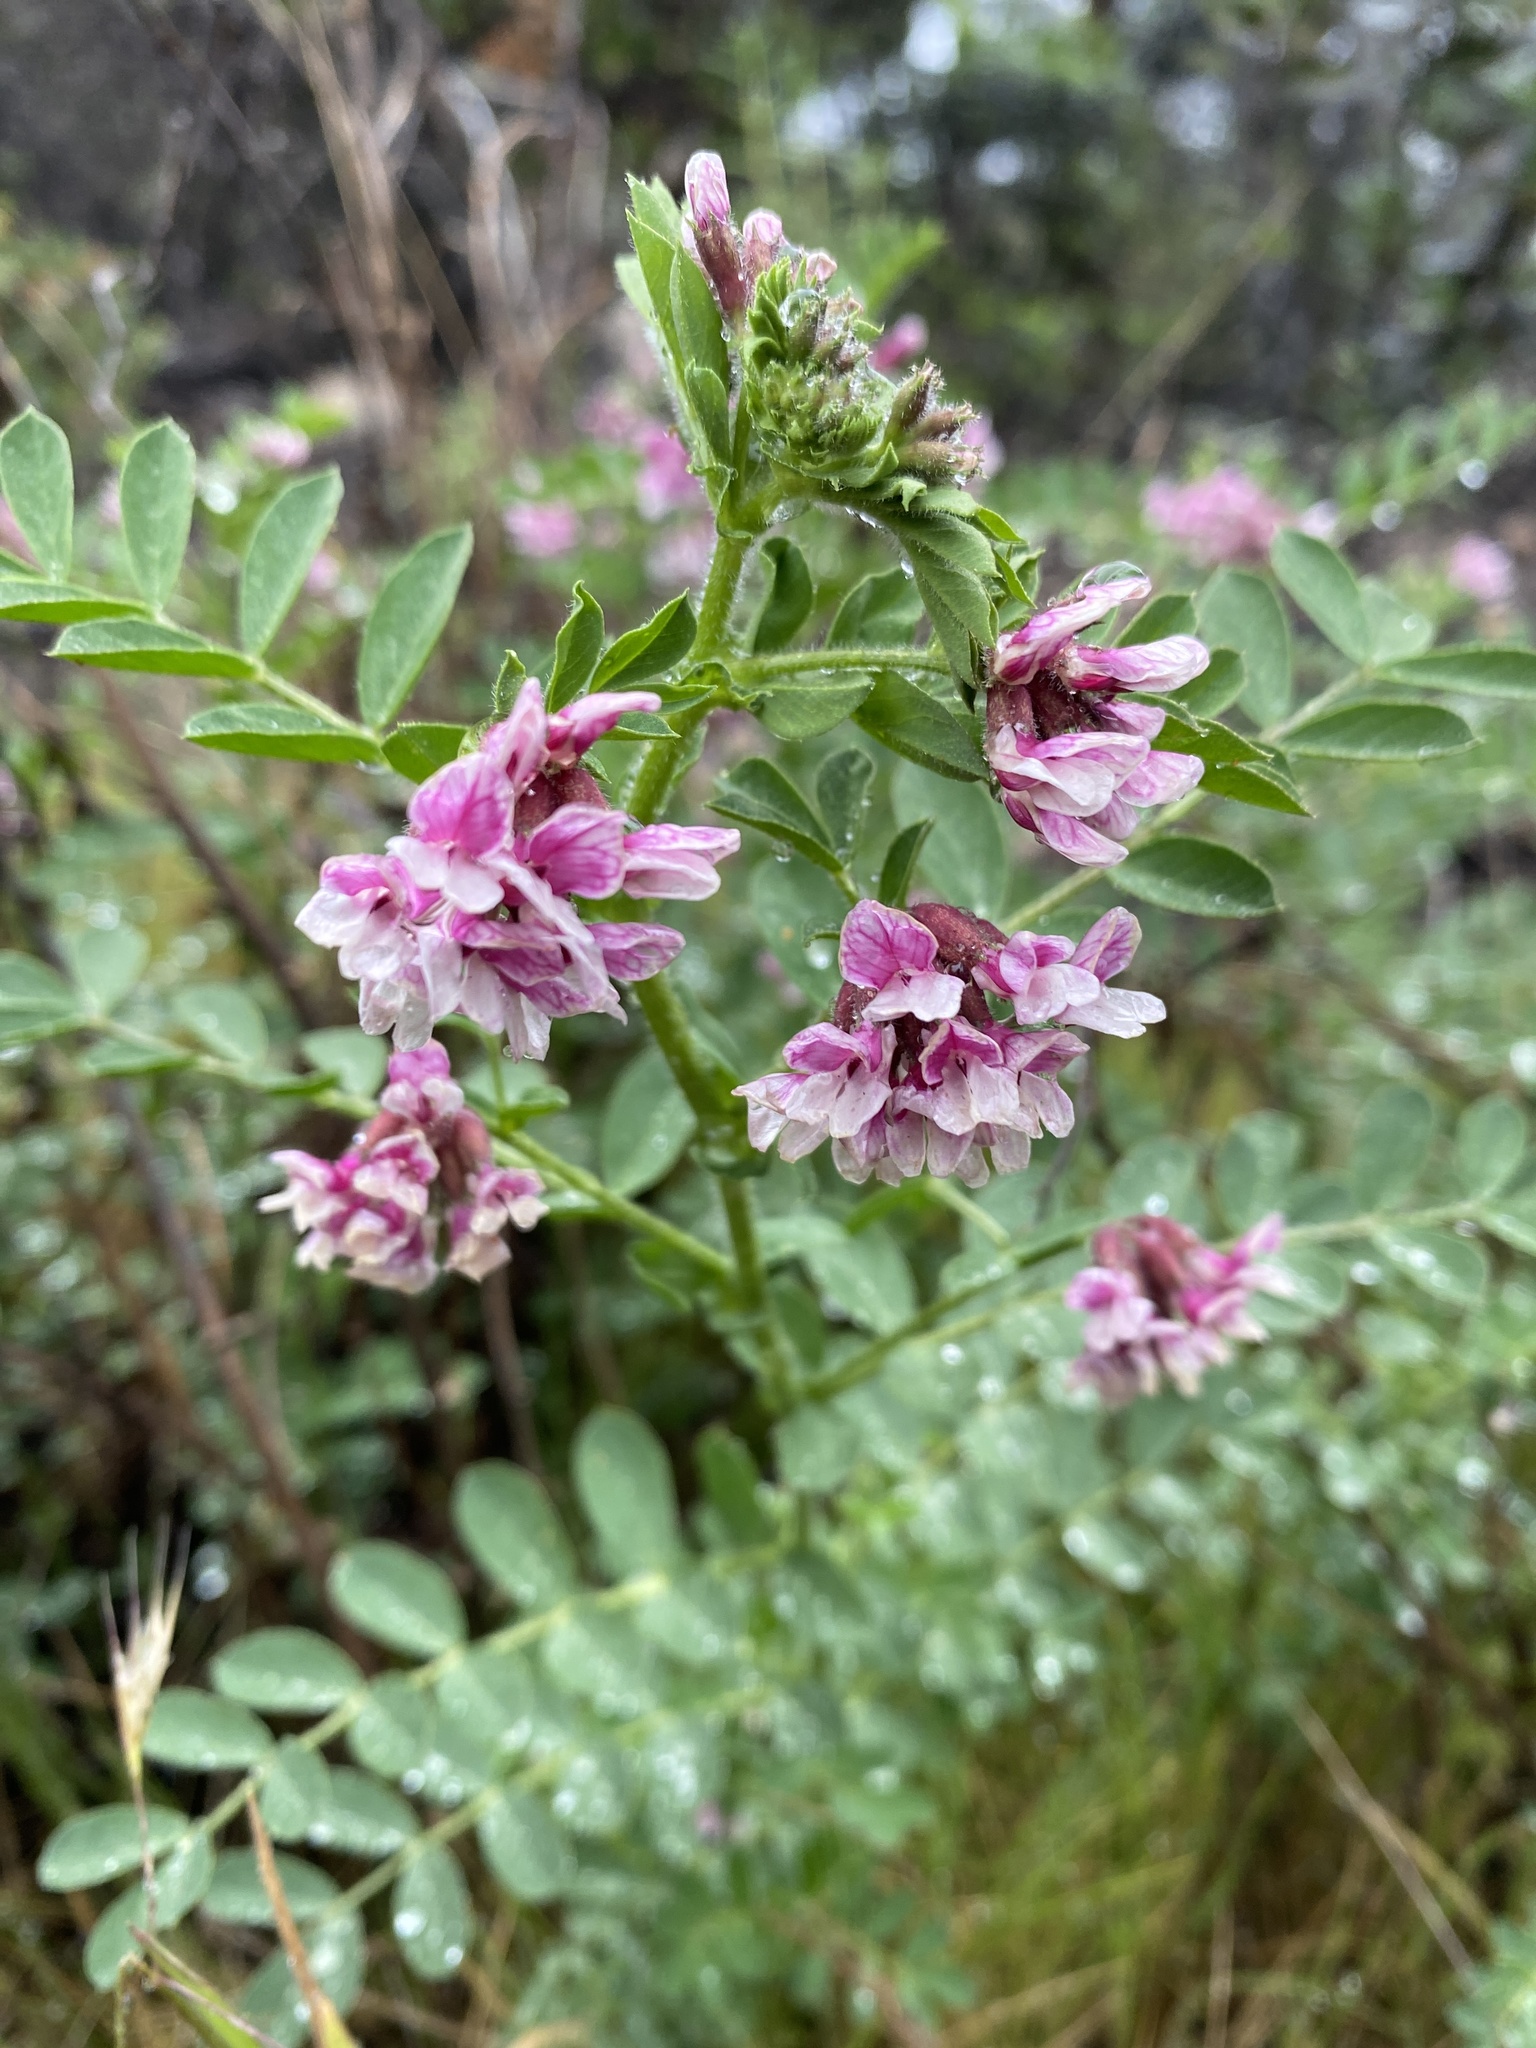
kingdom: Plantae
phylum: Tracheophyta
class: Magnoliopsida
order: Fabales
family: Fabaceae
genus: Hosackia
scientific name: Hosackia stipularis
